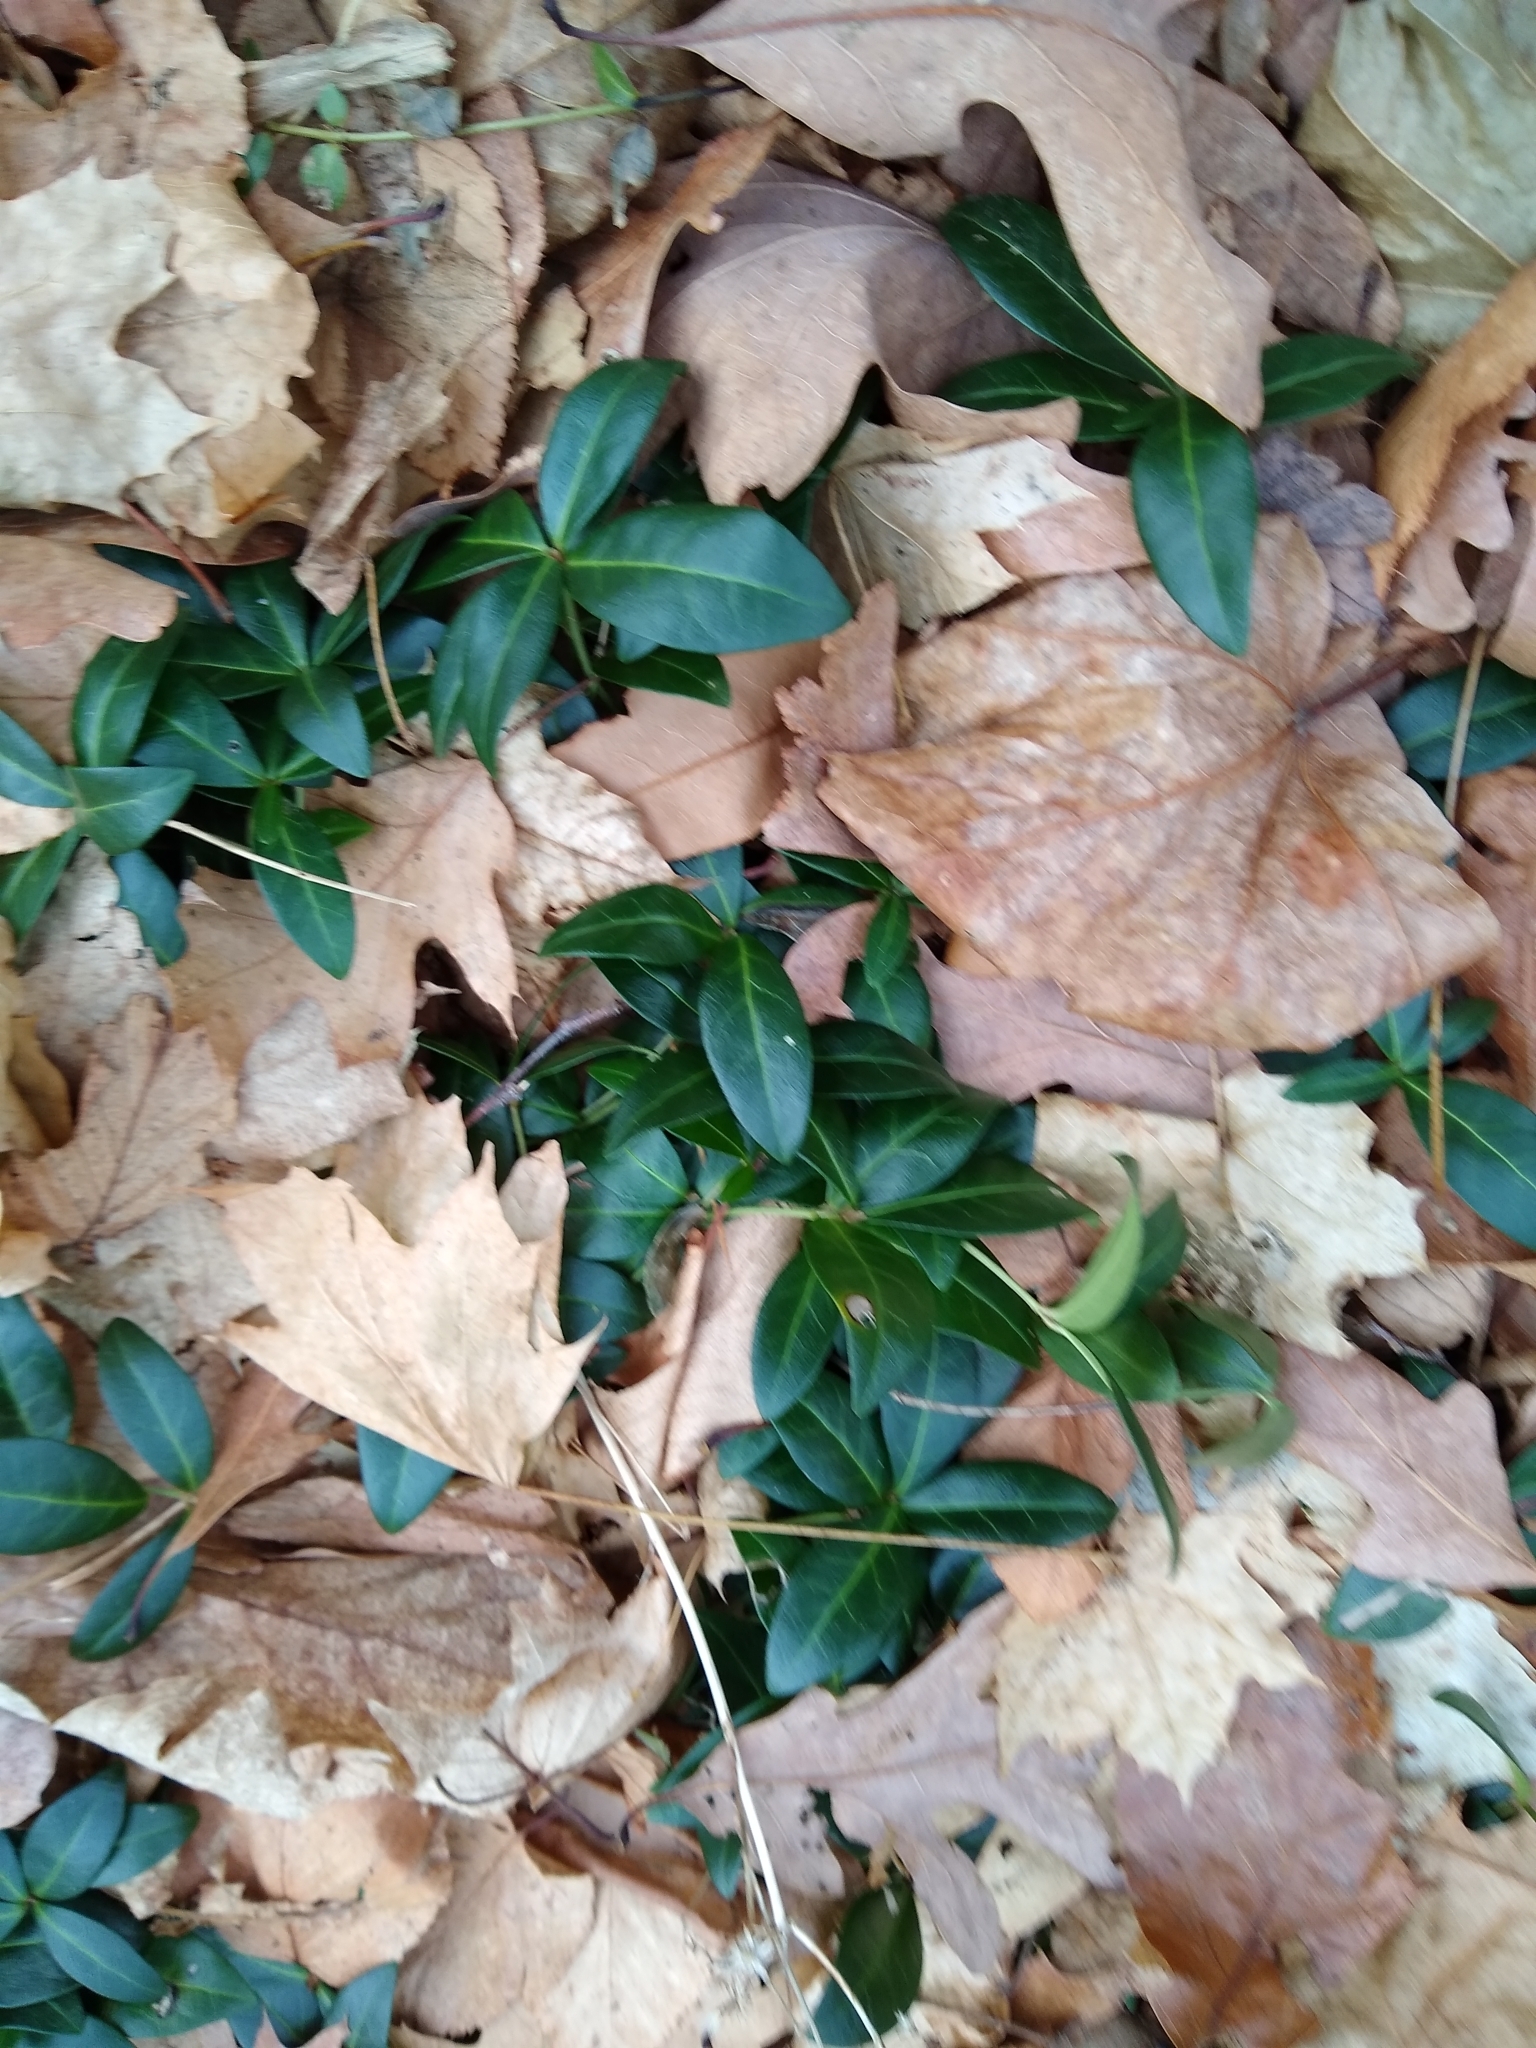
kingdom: Plantae
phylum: Tracheophyta
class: Magnoliopsida
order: Gentianales
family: Apocynaceae
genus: Vinca
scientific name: Vinca minor
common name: Lesser periwinkle
